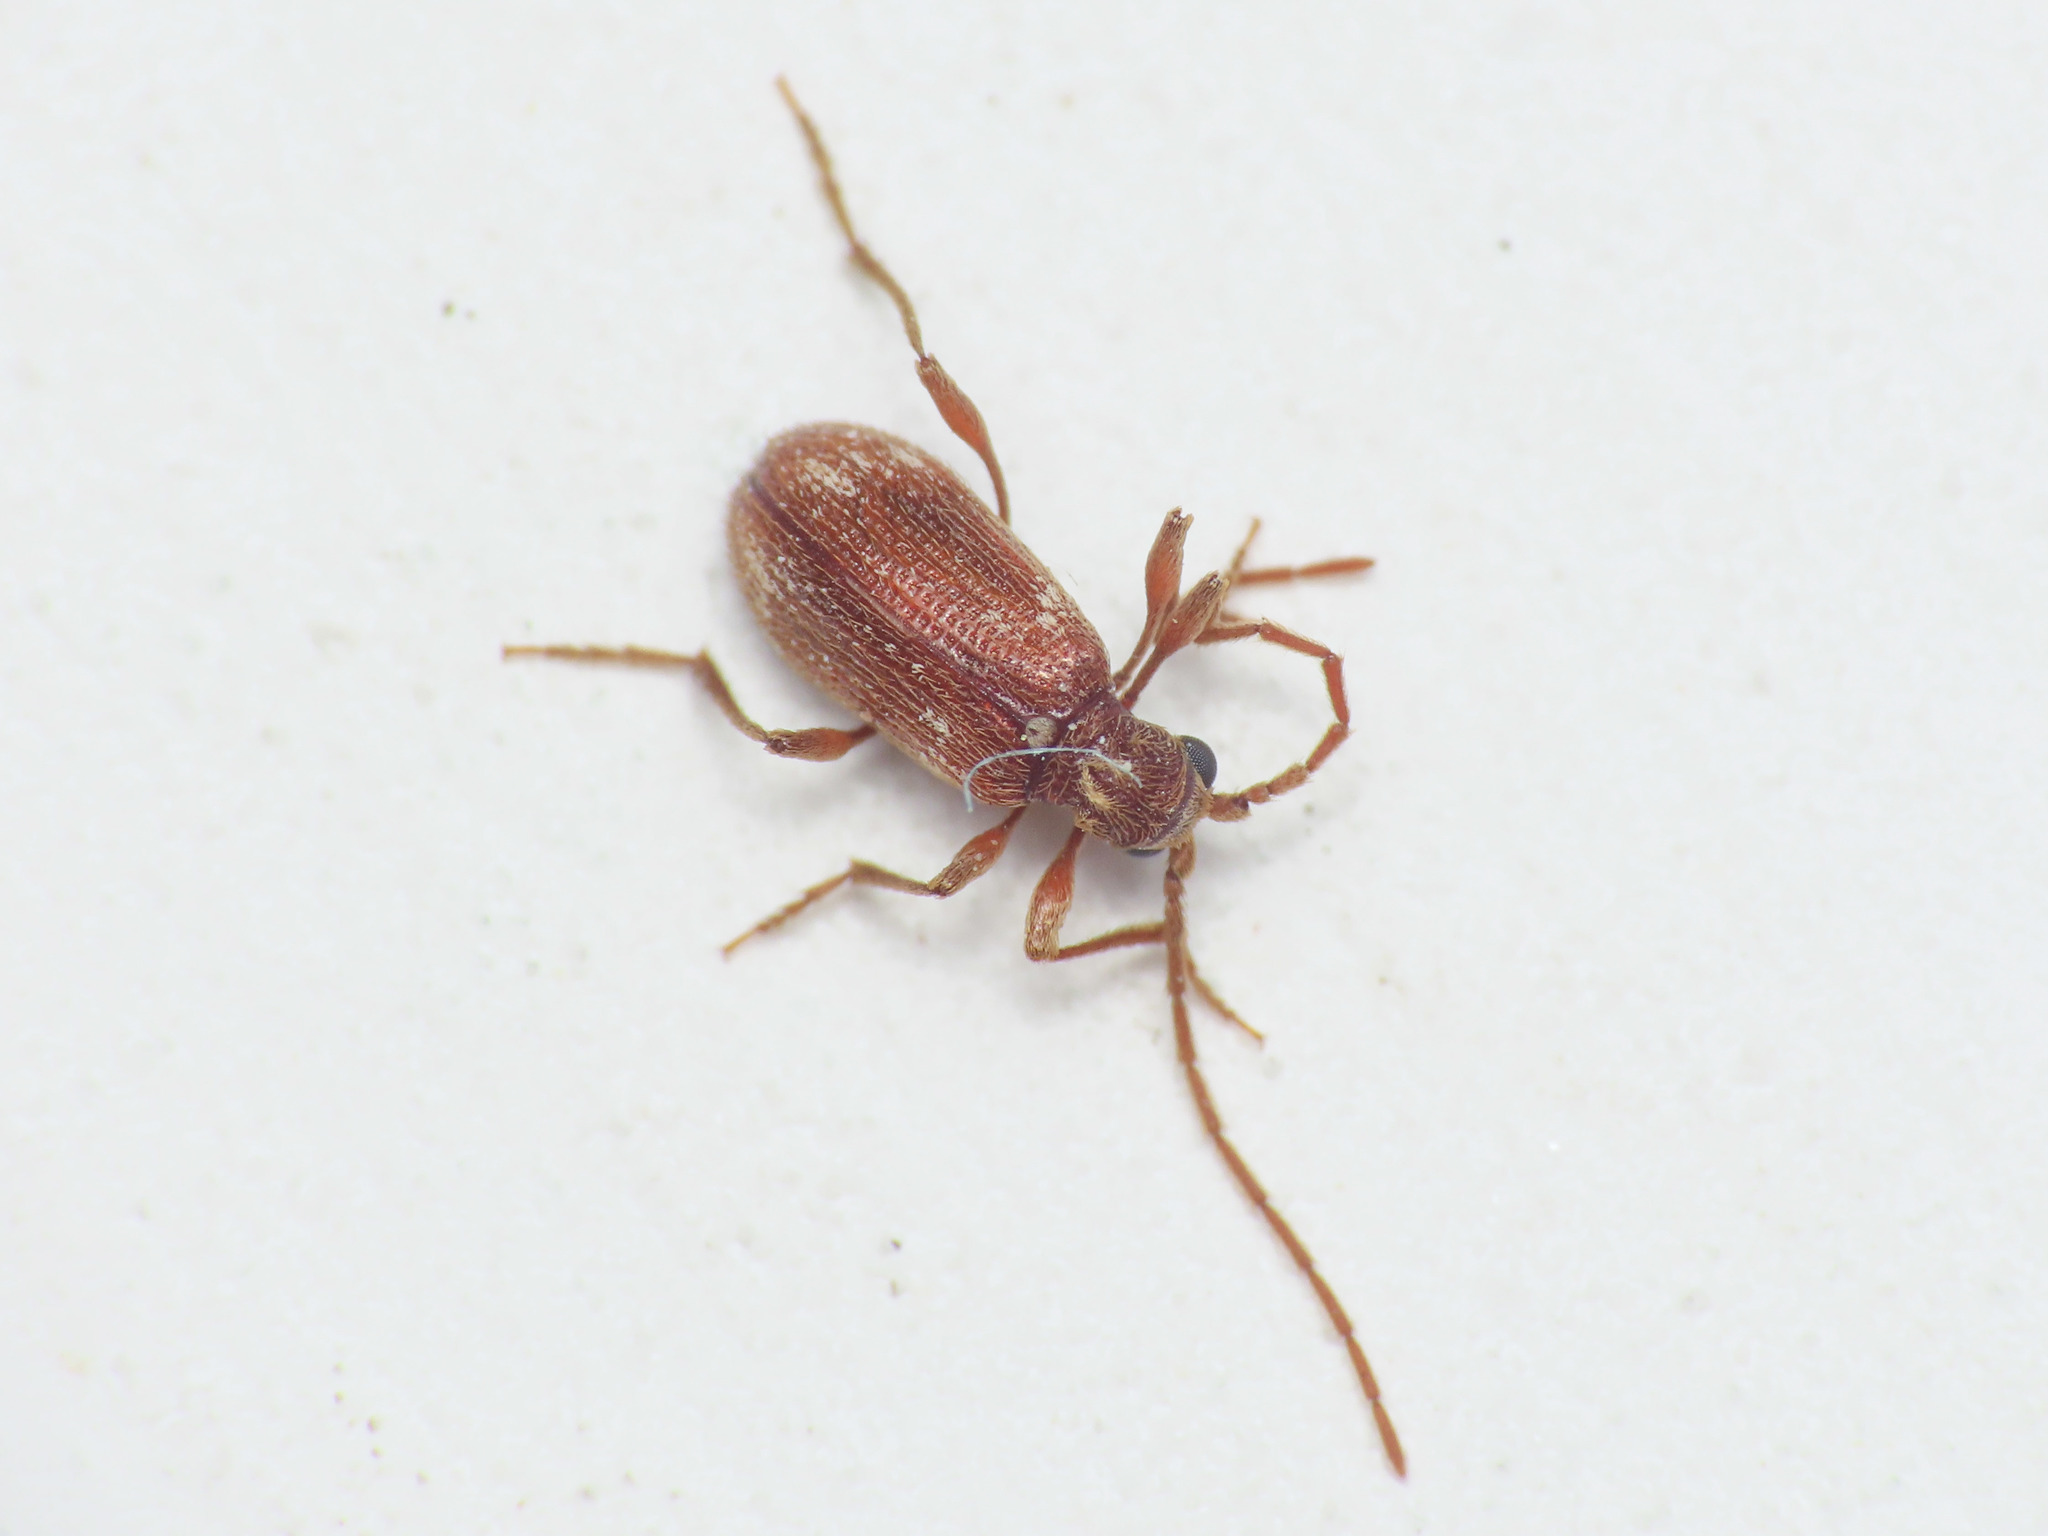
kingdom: Animalia
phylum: Arthropoda
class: Insecta
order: Coleoptera
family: Ptinidae
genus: Ptinus
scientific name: Ptinus fur
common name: White-marked spider beetle
